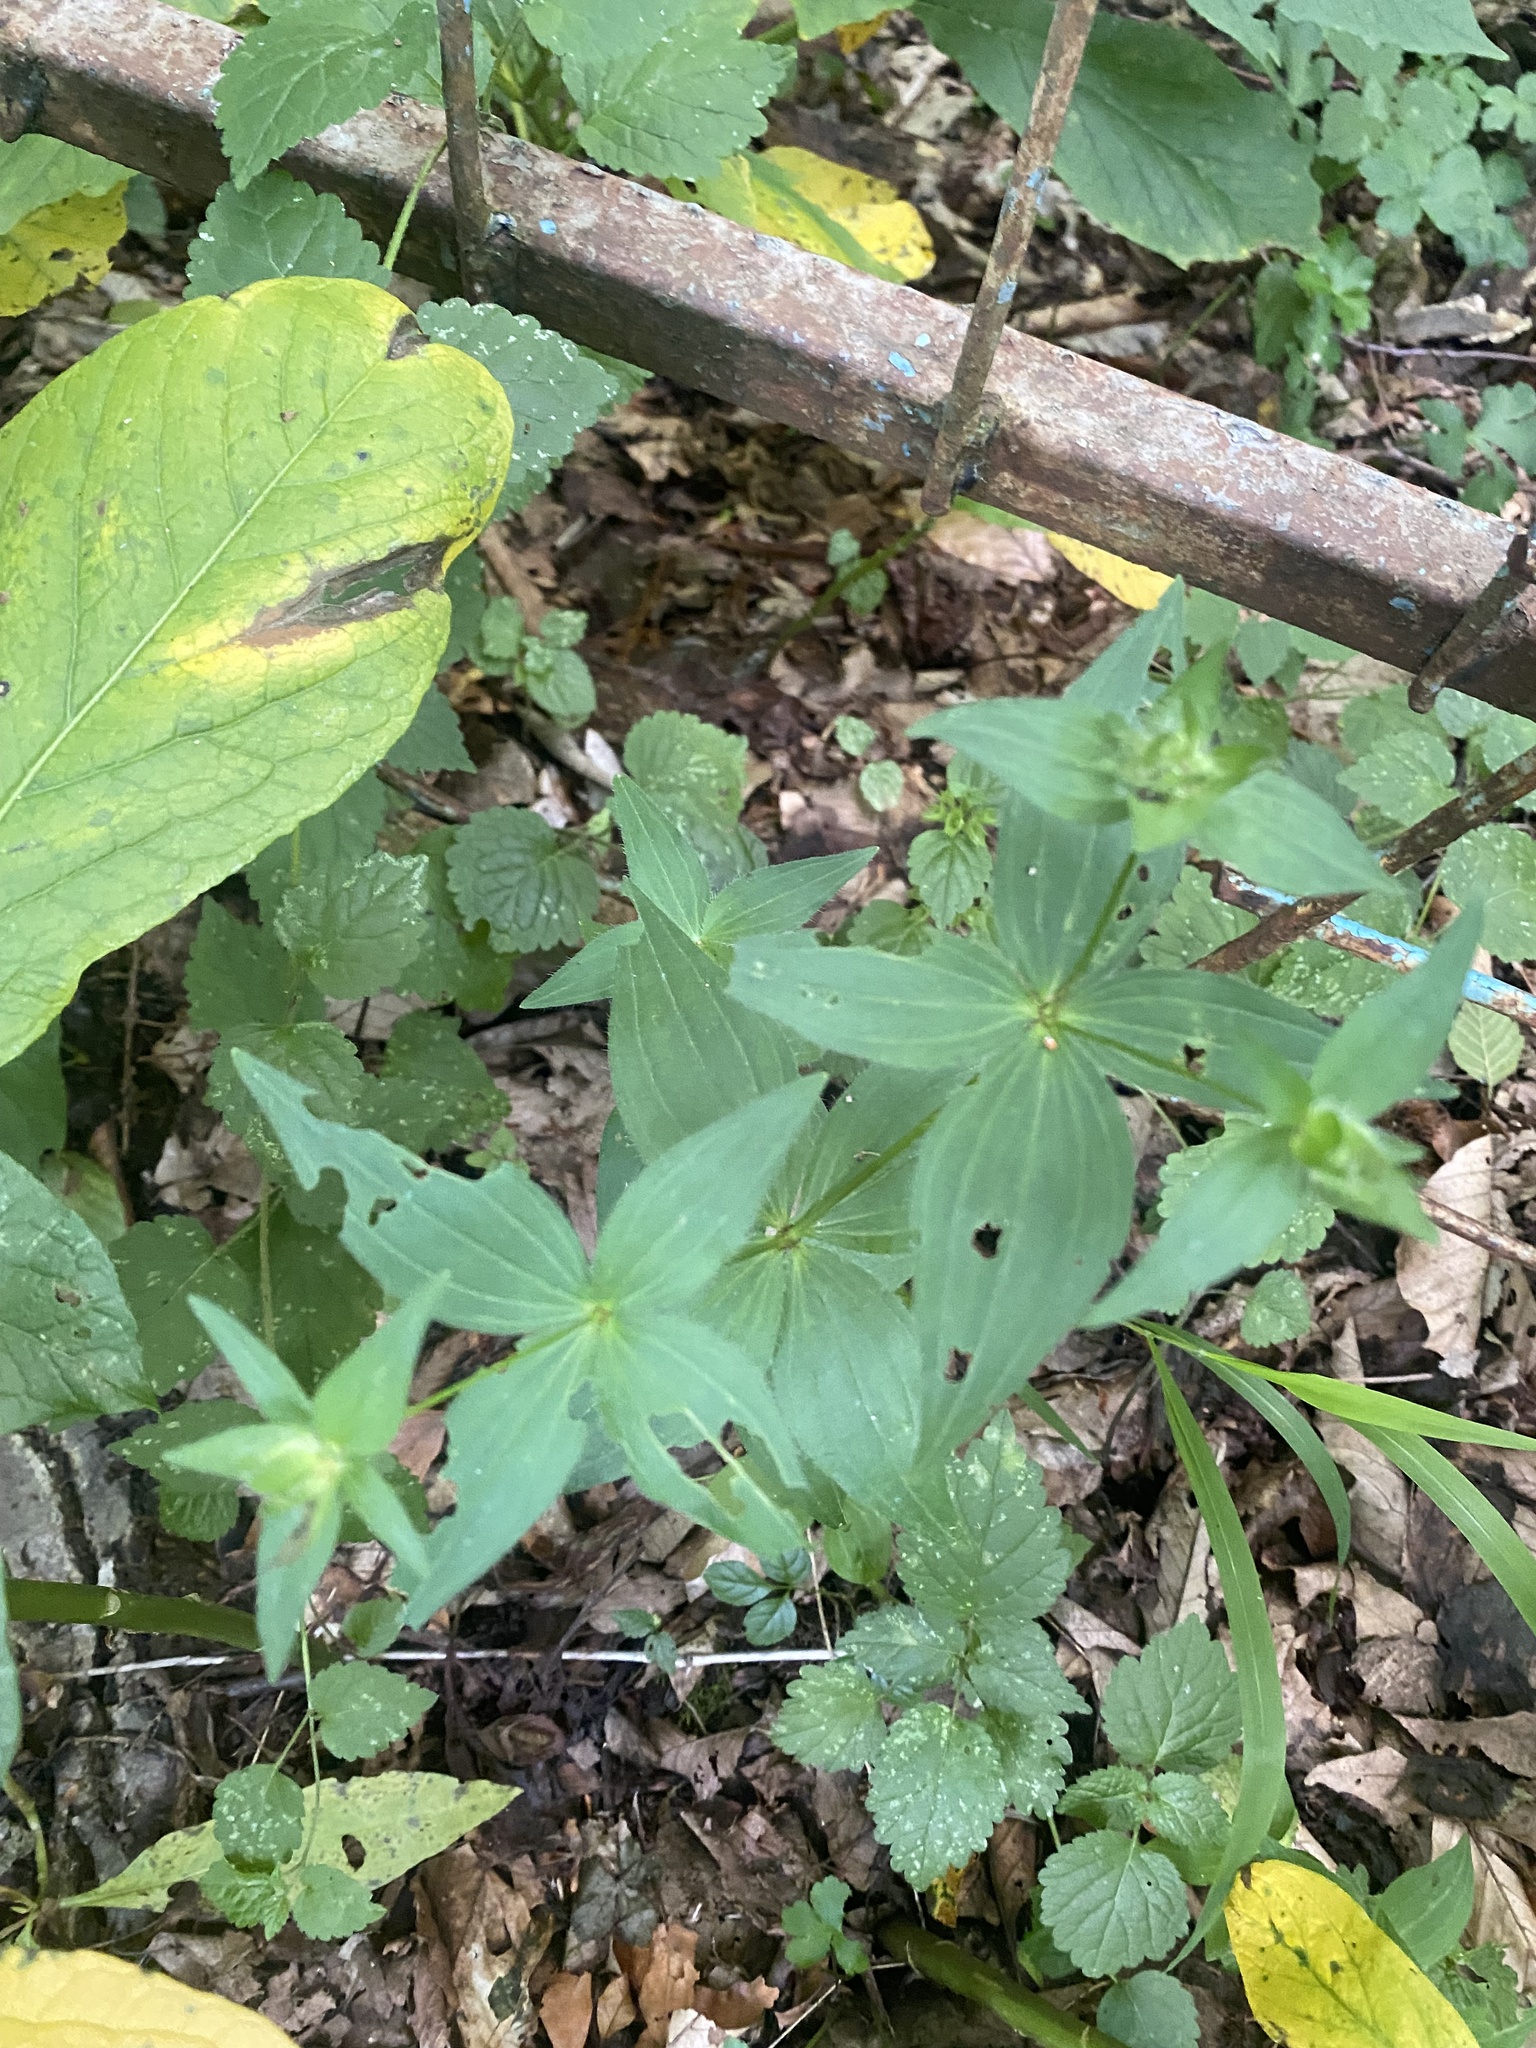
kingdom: Plantae
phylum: Tracheophyta
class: Liliopsida
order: Liliales
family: Melanthiaceae
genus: Paris
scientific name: Paris incompleta
